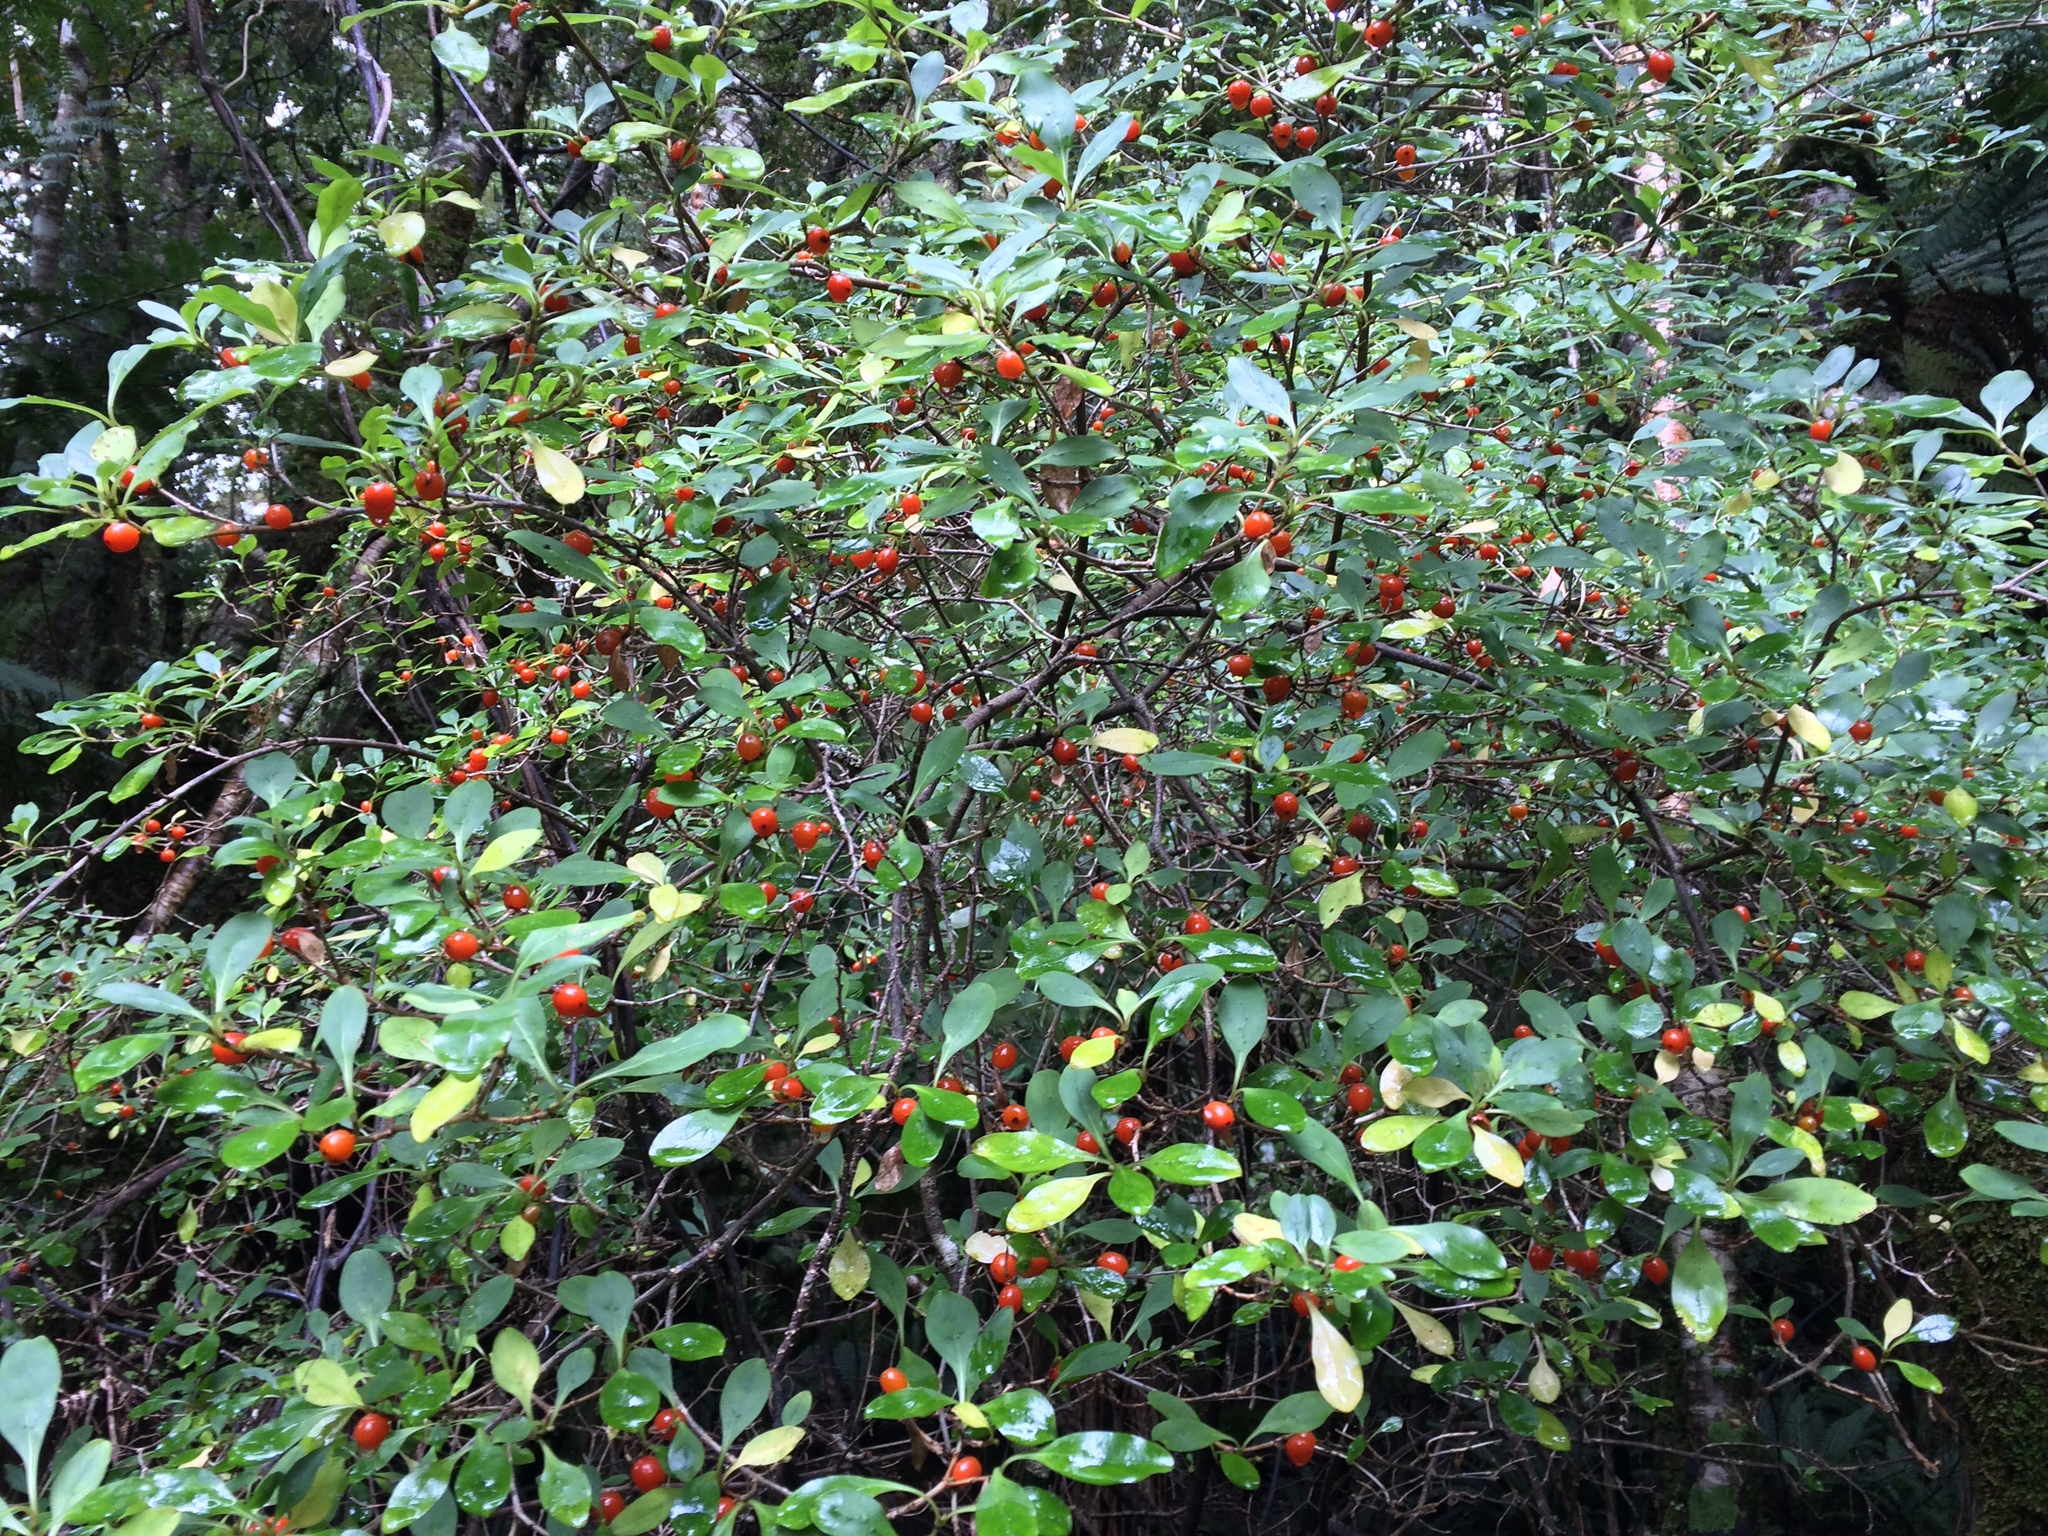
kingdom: Plantae
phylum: Tracheophyta
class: Magnoliopsida
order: Gentianales
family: Rubiaceae
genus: Coprosma
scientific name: Coprosma foetidissima
